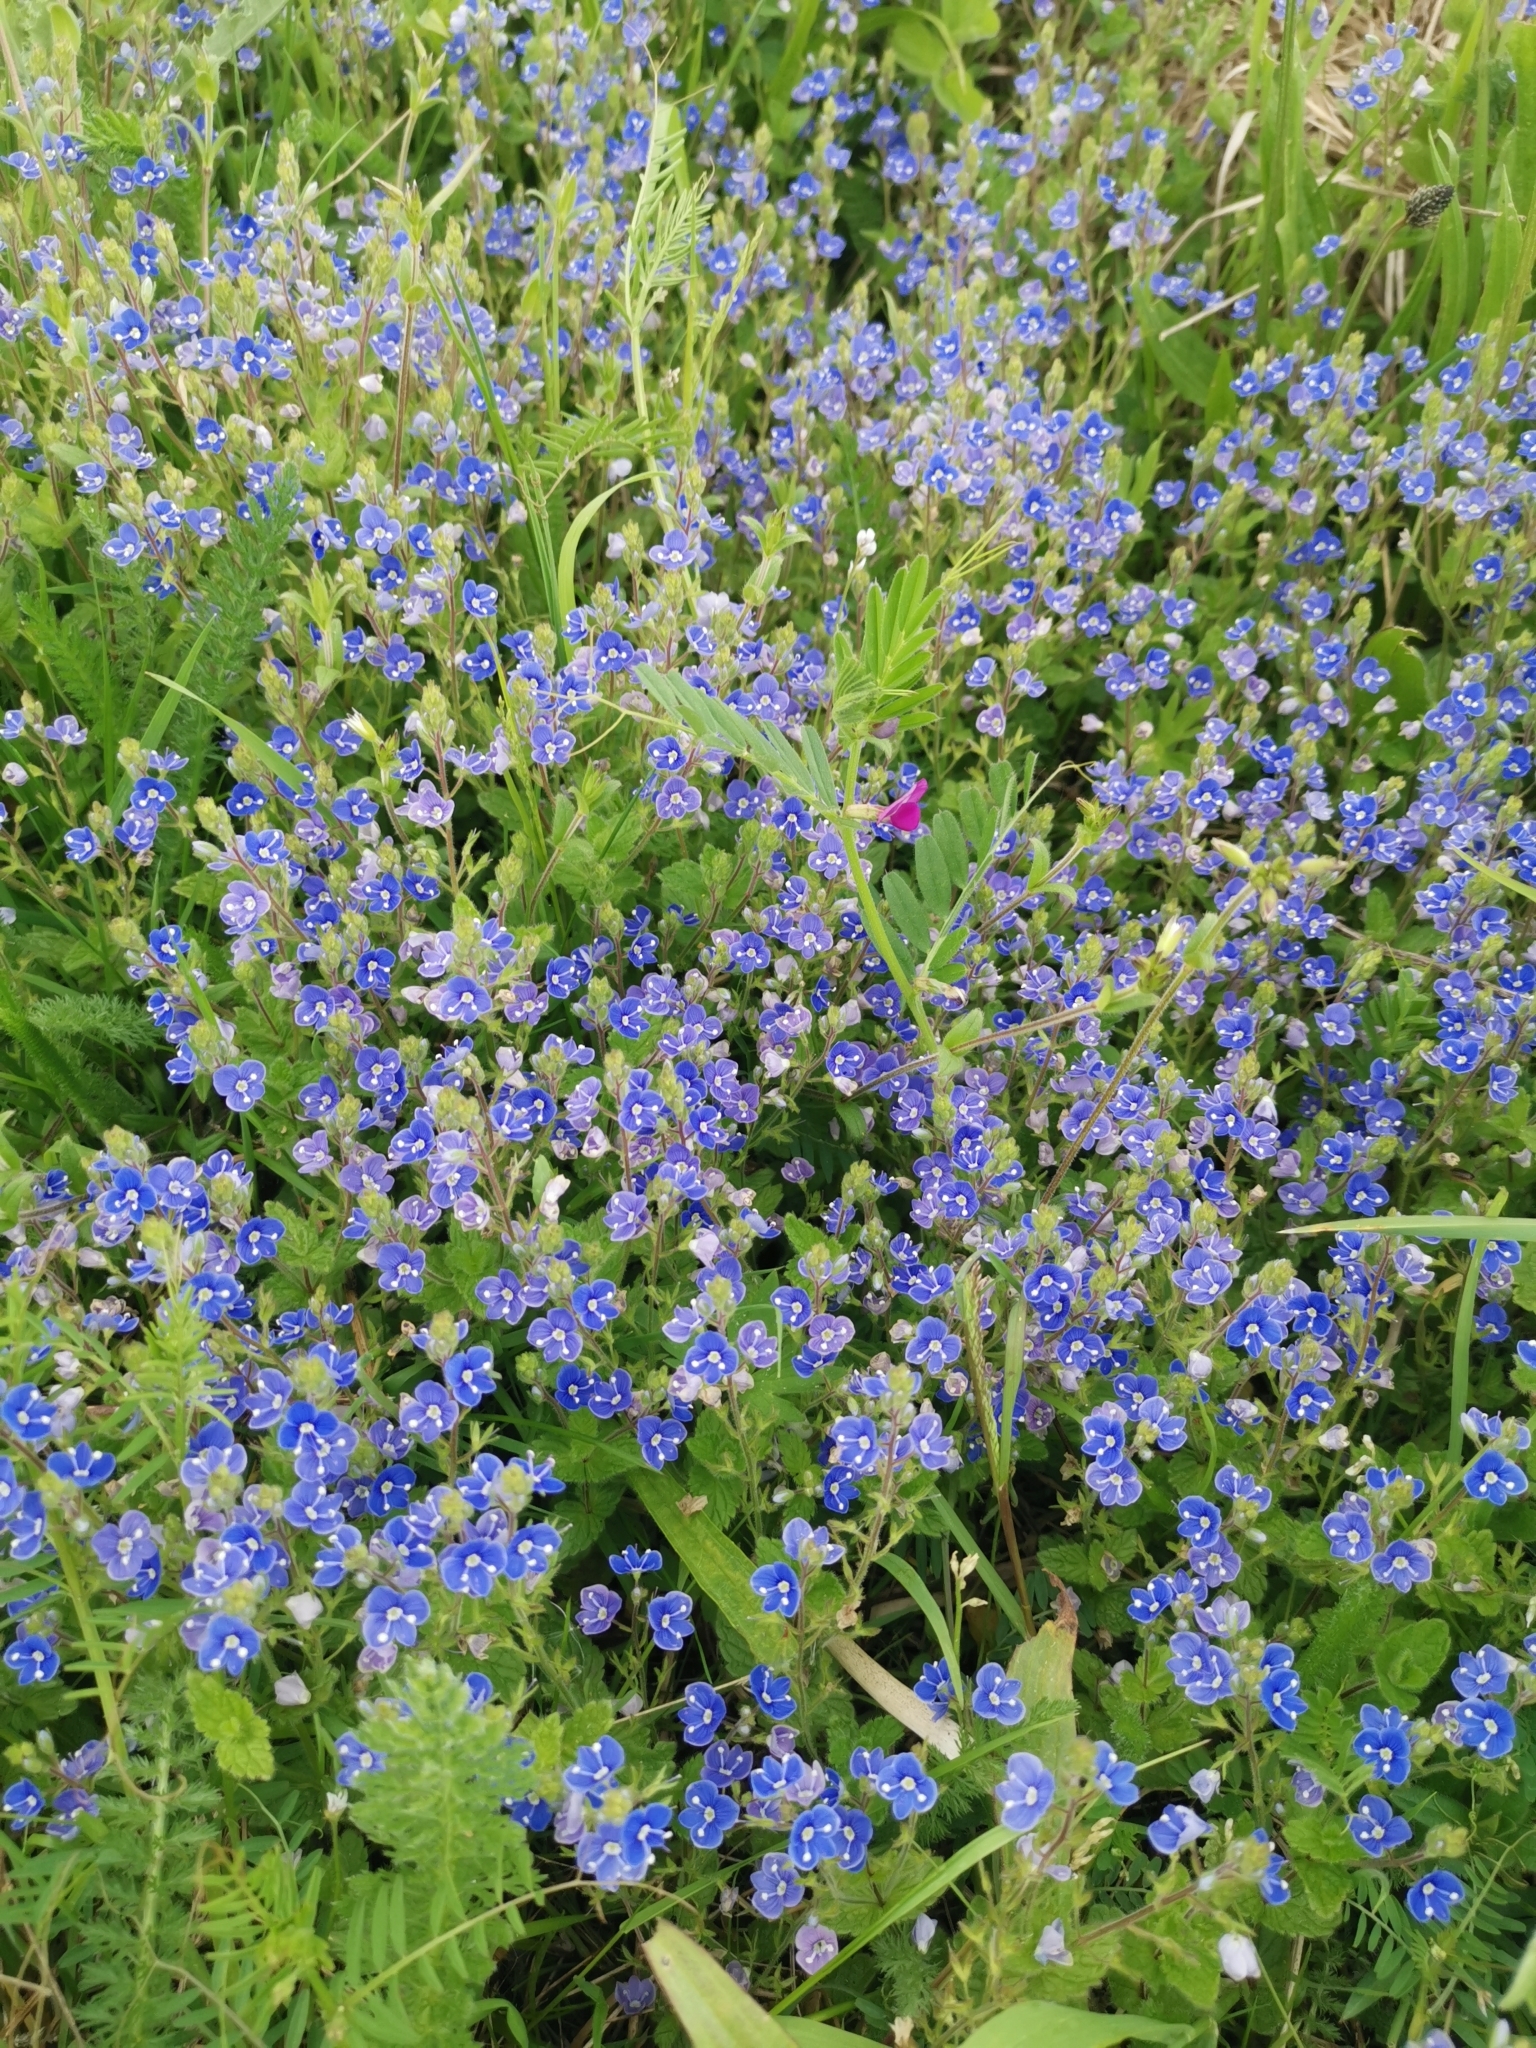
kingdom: Plantae
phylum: Tracheophyta
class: Magnoliopsida
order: Lamiales
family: Plantaginaceae
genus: Veronica
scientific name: Veronica chamaedrys
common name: Germander speedwell
